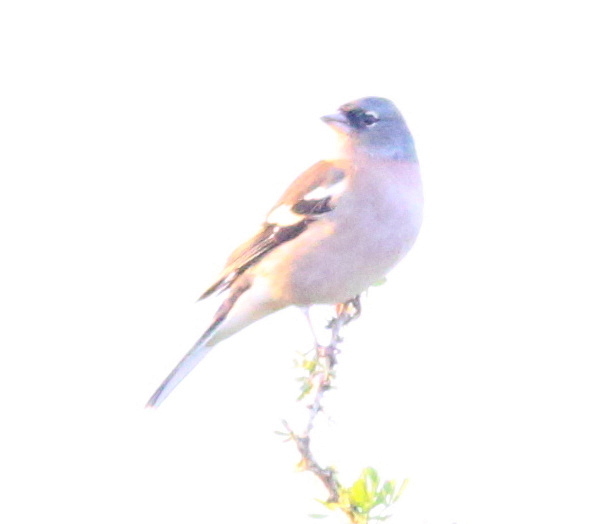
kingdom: Animalia
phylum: Chordata
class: Aves
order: Passeriformes
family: Fringillidae
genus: Fringilla
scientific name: Fringilla spodiogenys
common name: African chaffinch
